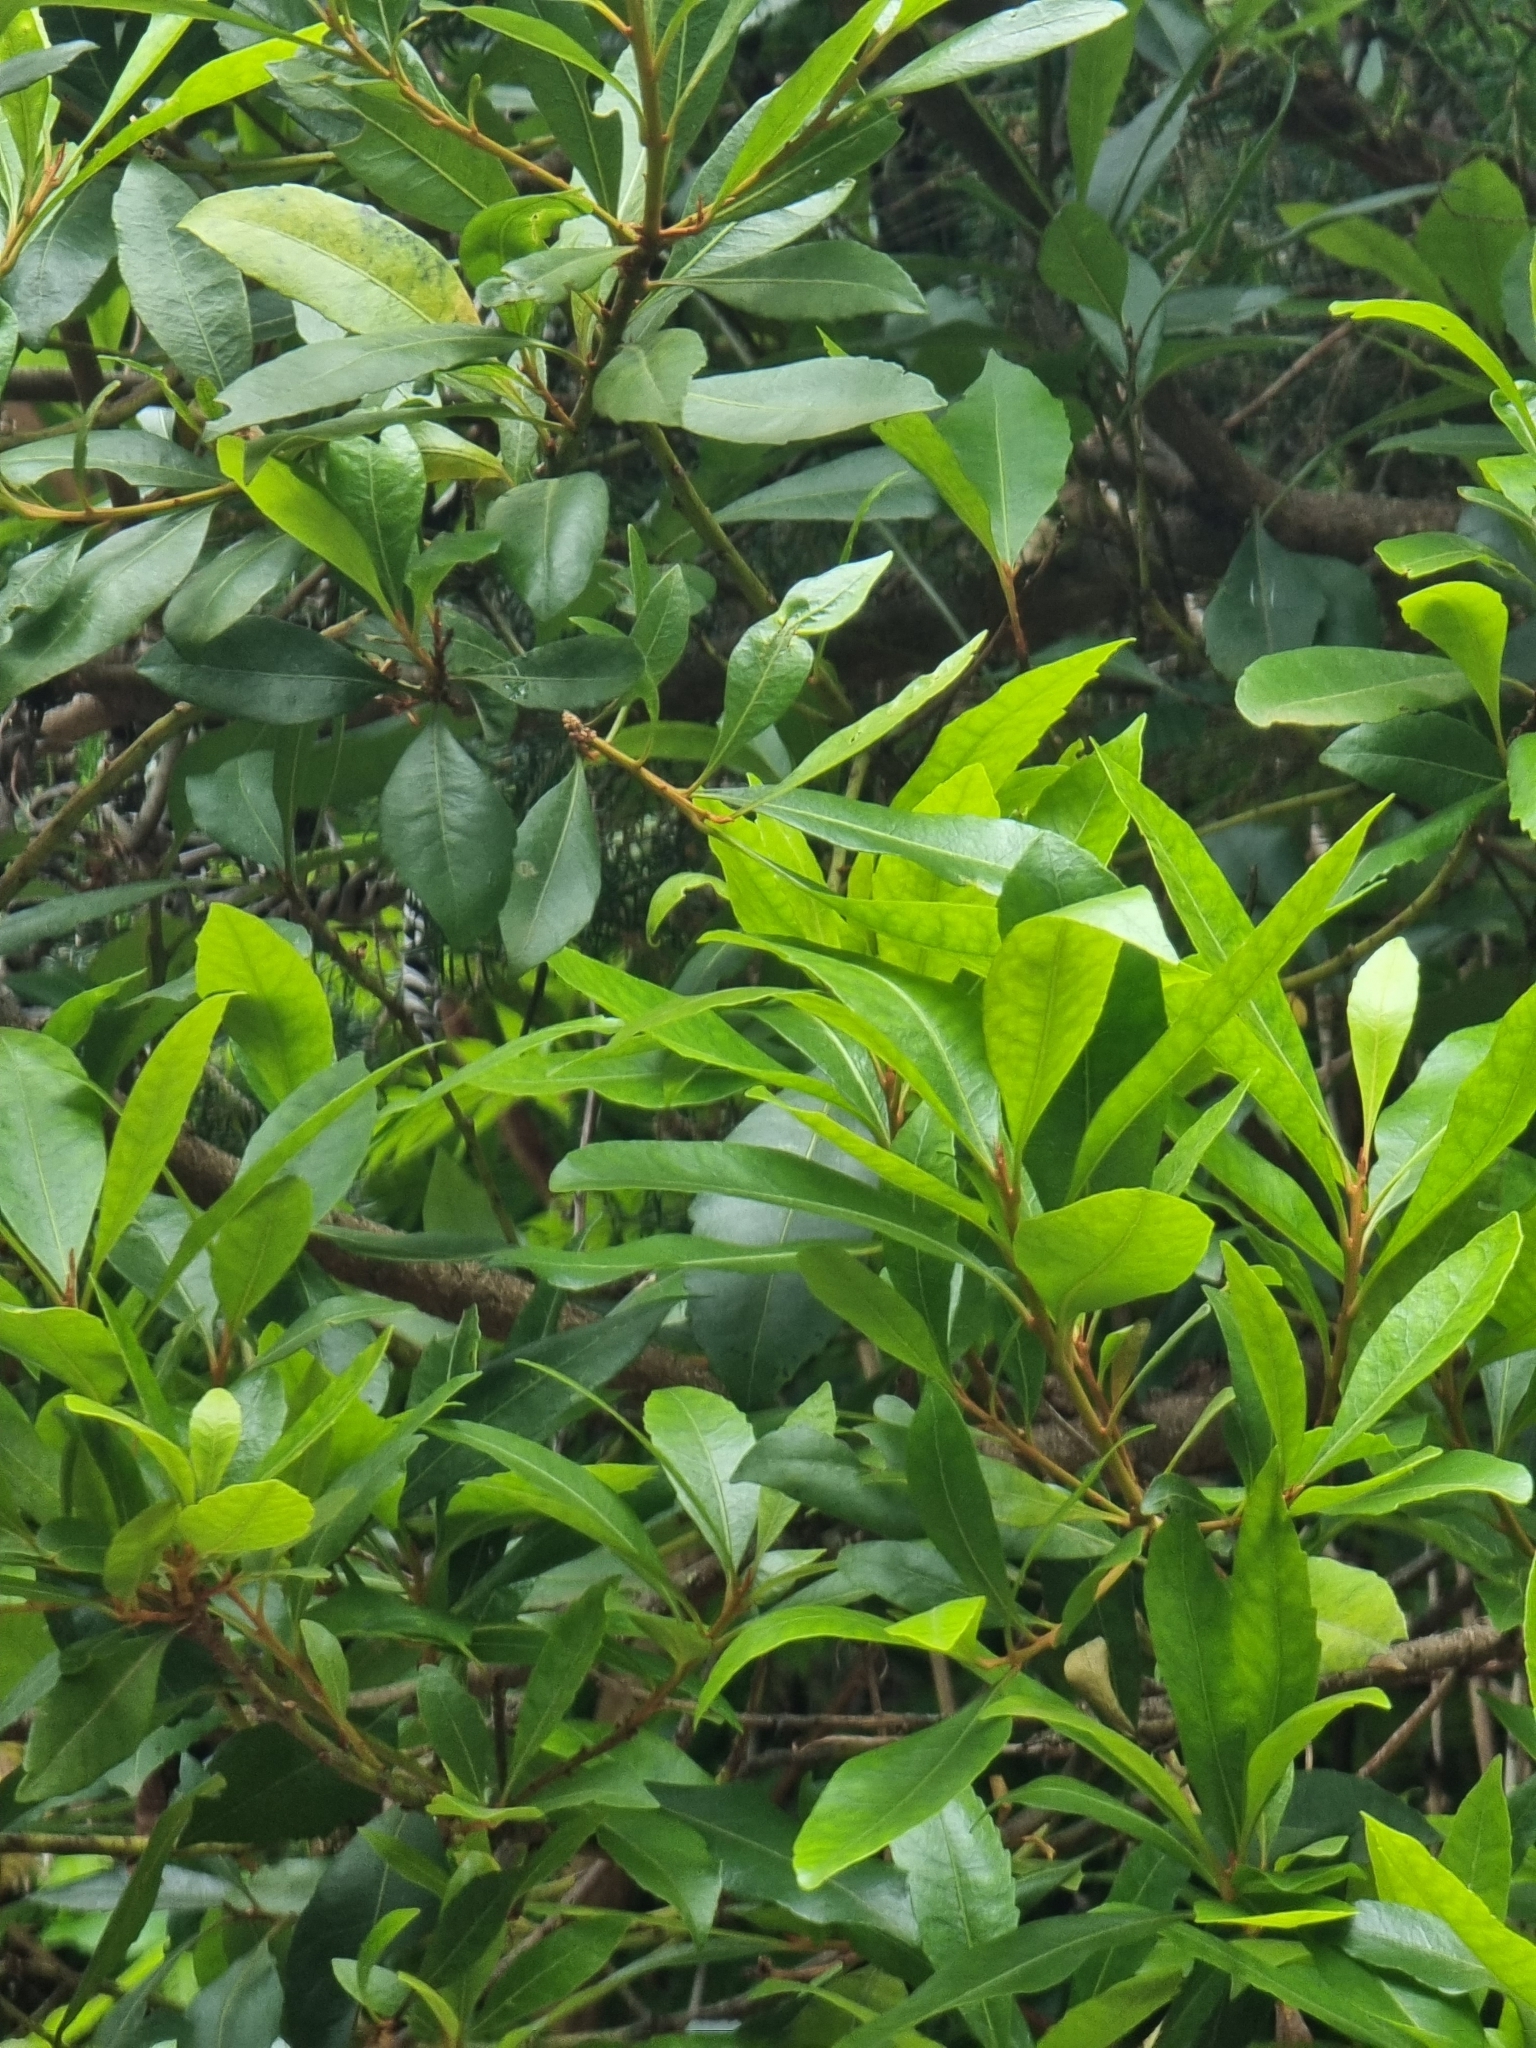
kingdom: Plantae
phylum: Tracheophyta
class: Magnoliopsida
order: Fagales
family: Myricaceae
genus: Morella
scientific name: Morella faya
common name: Firetree
